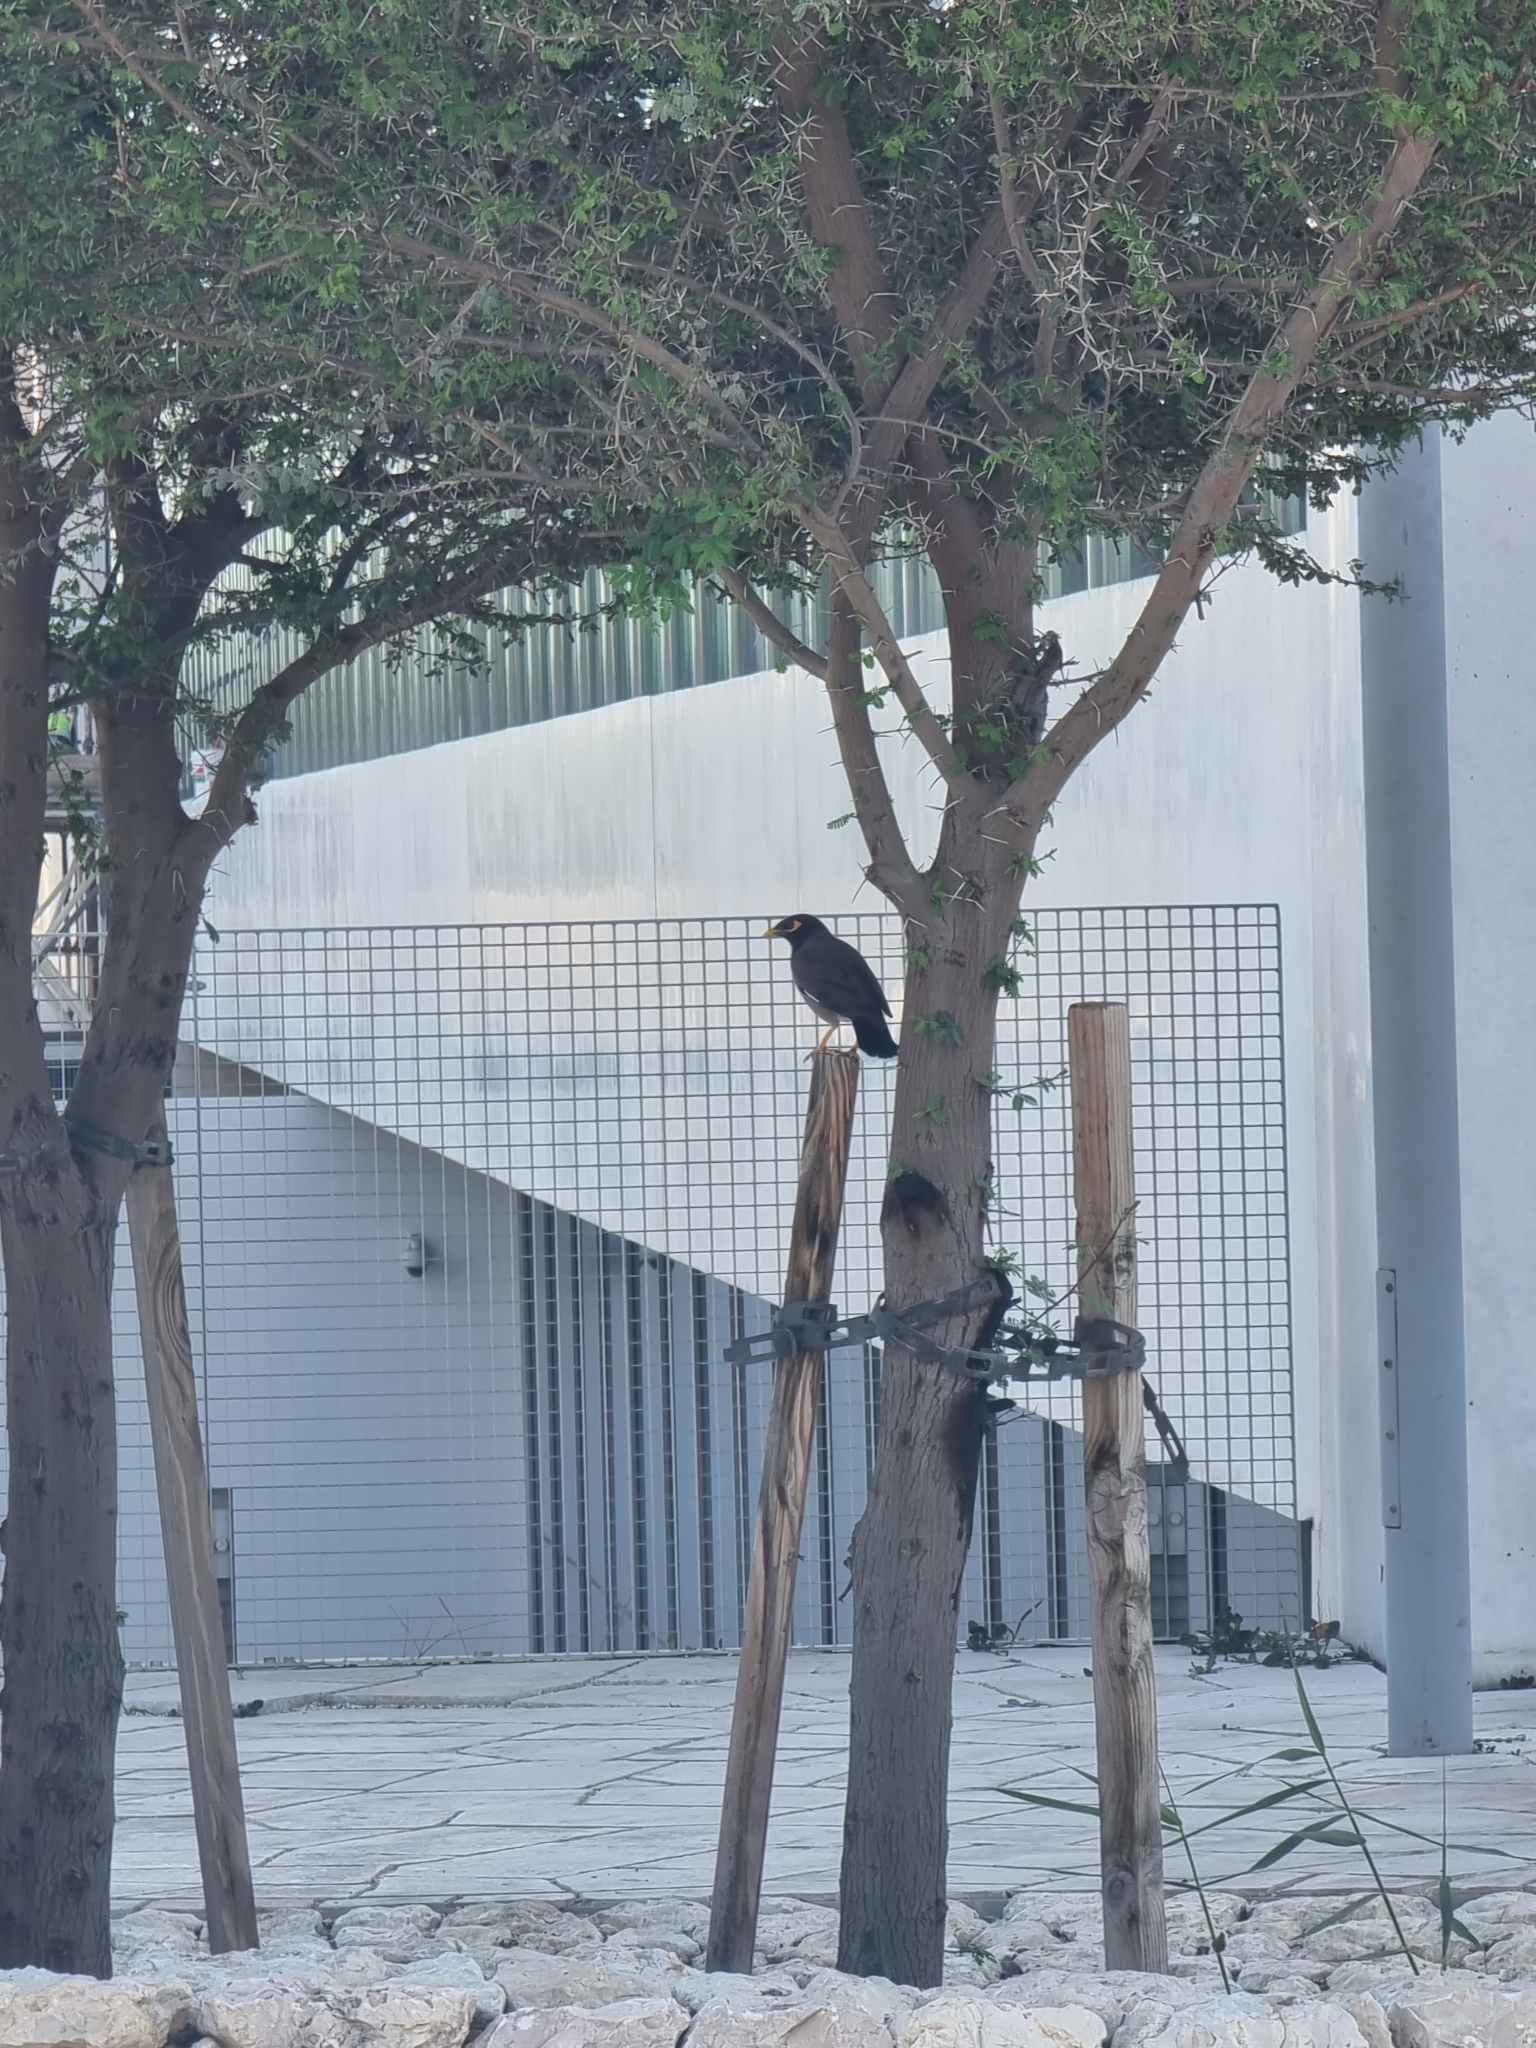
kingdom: Animalia
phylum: Chordata
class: Aves
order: Passeriformes
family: Sturnidae
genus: Acridotheres
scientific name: Acridotheres tristis
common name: Common myna
